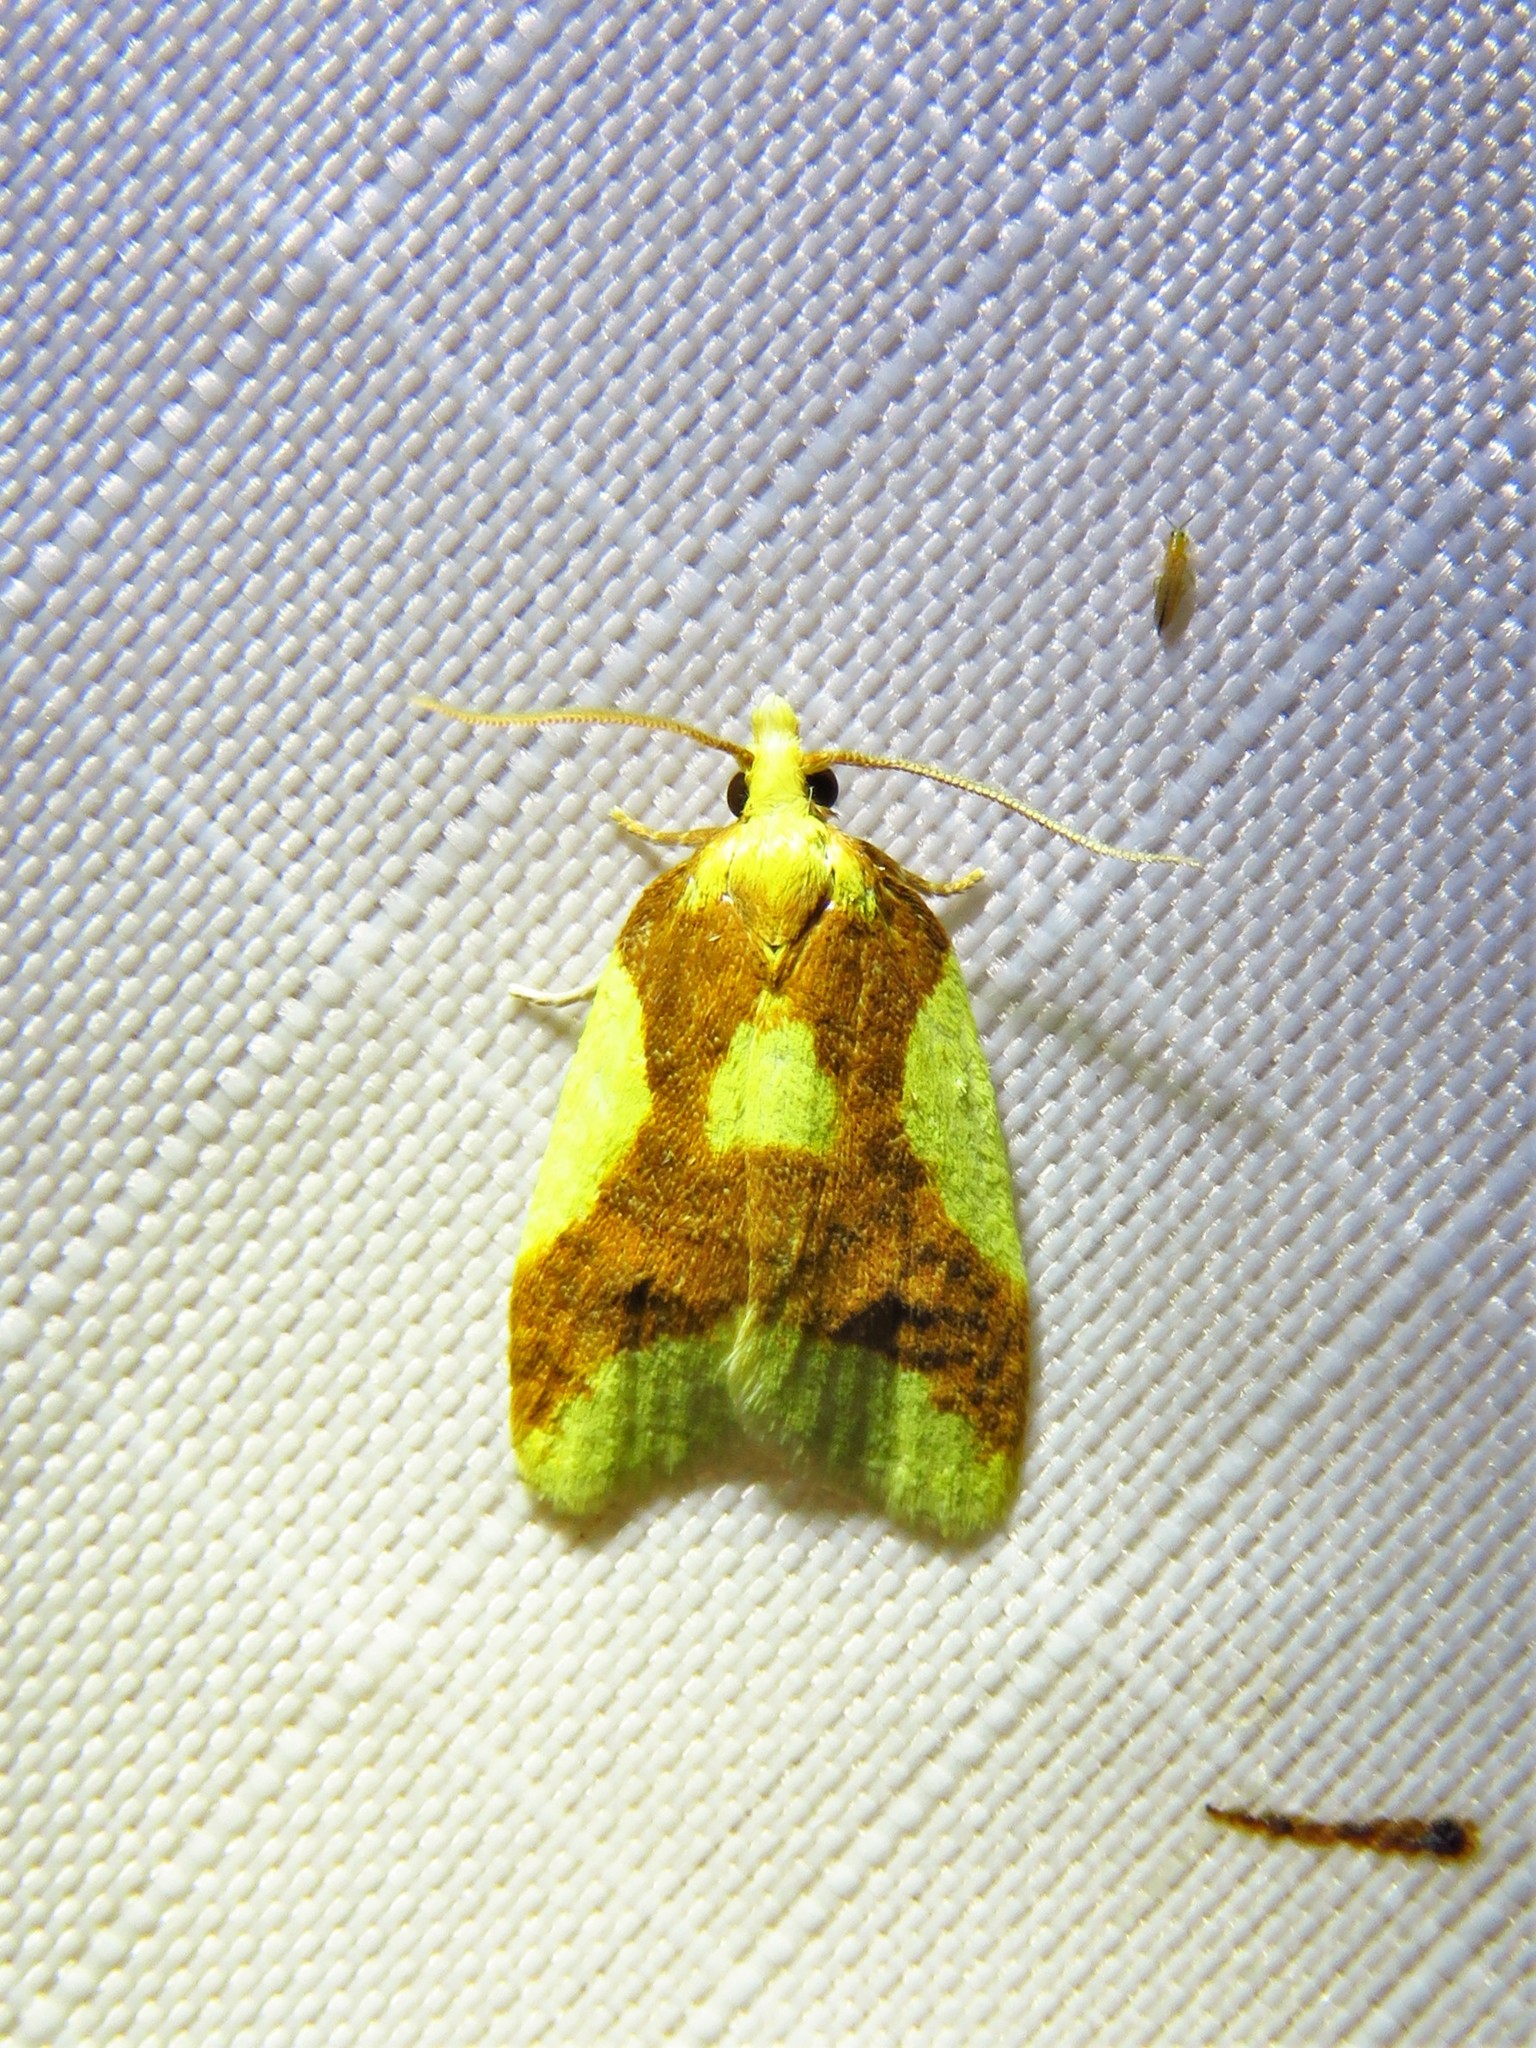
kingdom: Animalia
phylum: Arthropoda
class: Insecta
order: Lepidoptera
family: Tortricidae
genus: Sparganothis
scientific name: Sparganothis pulcherrimana
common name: Beautiful sparganothis
